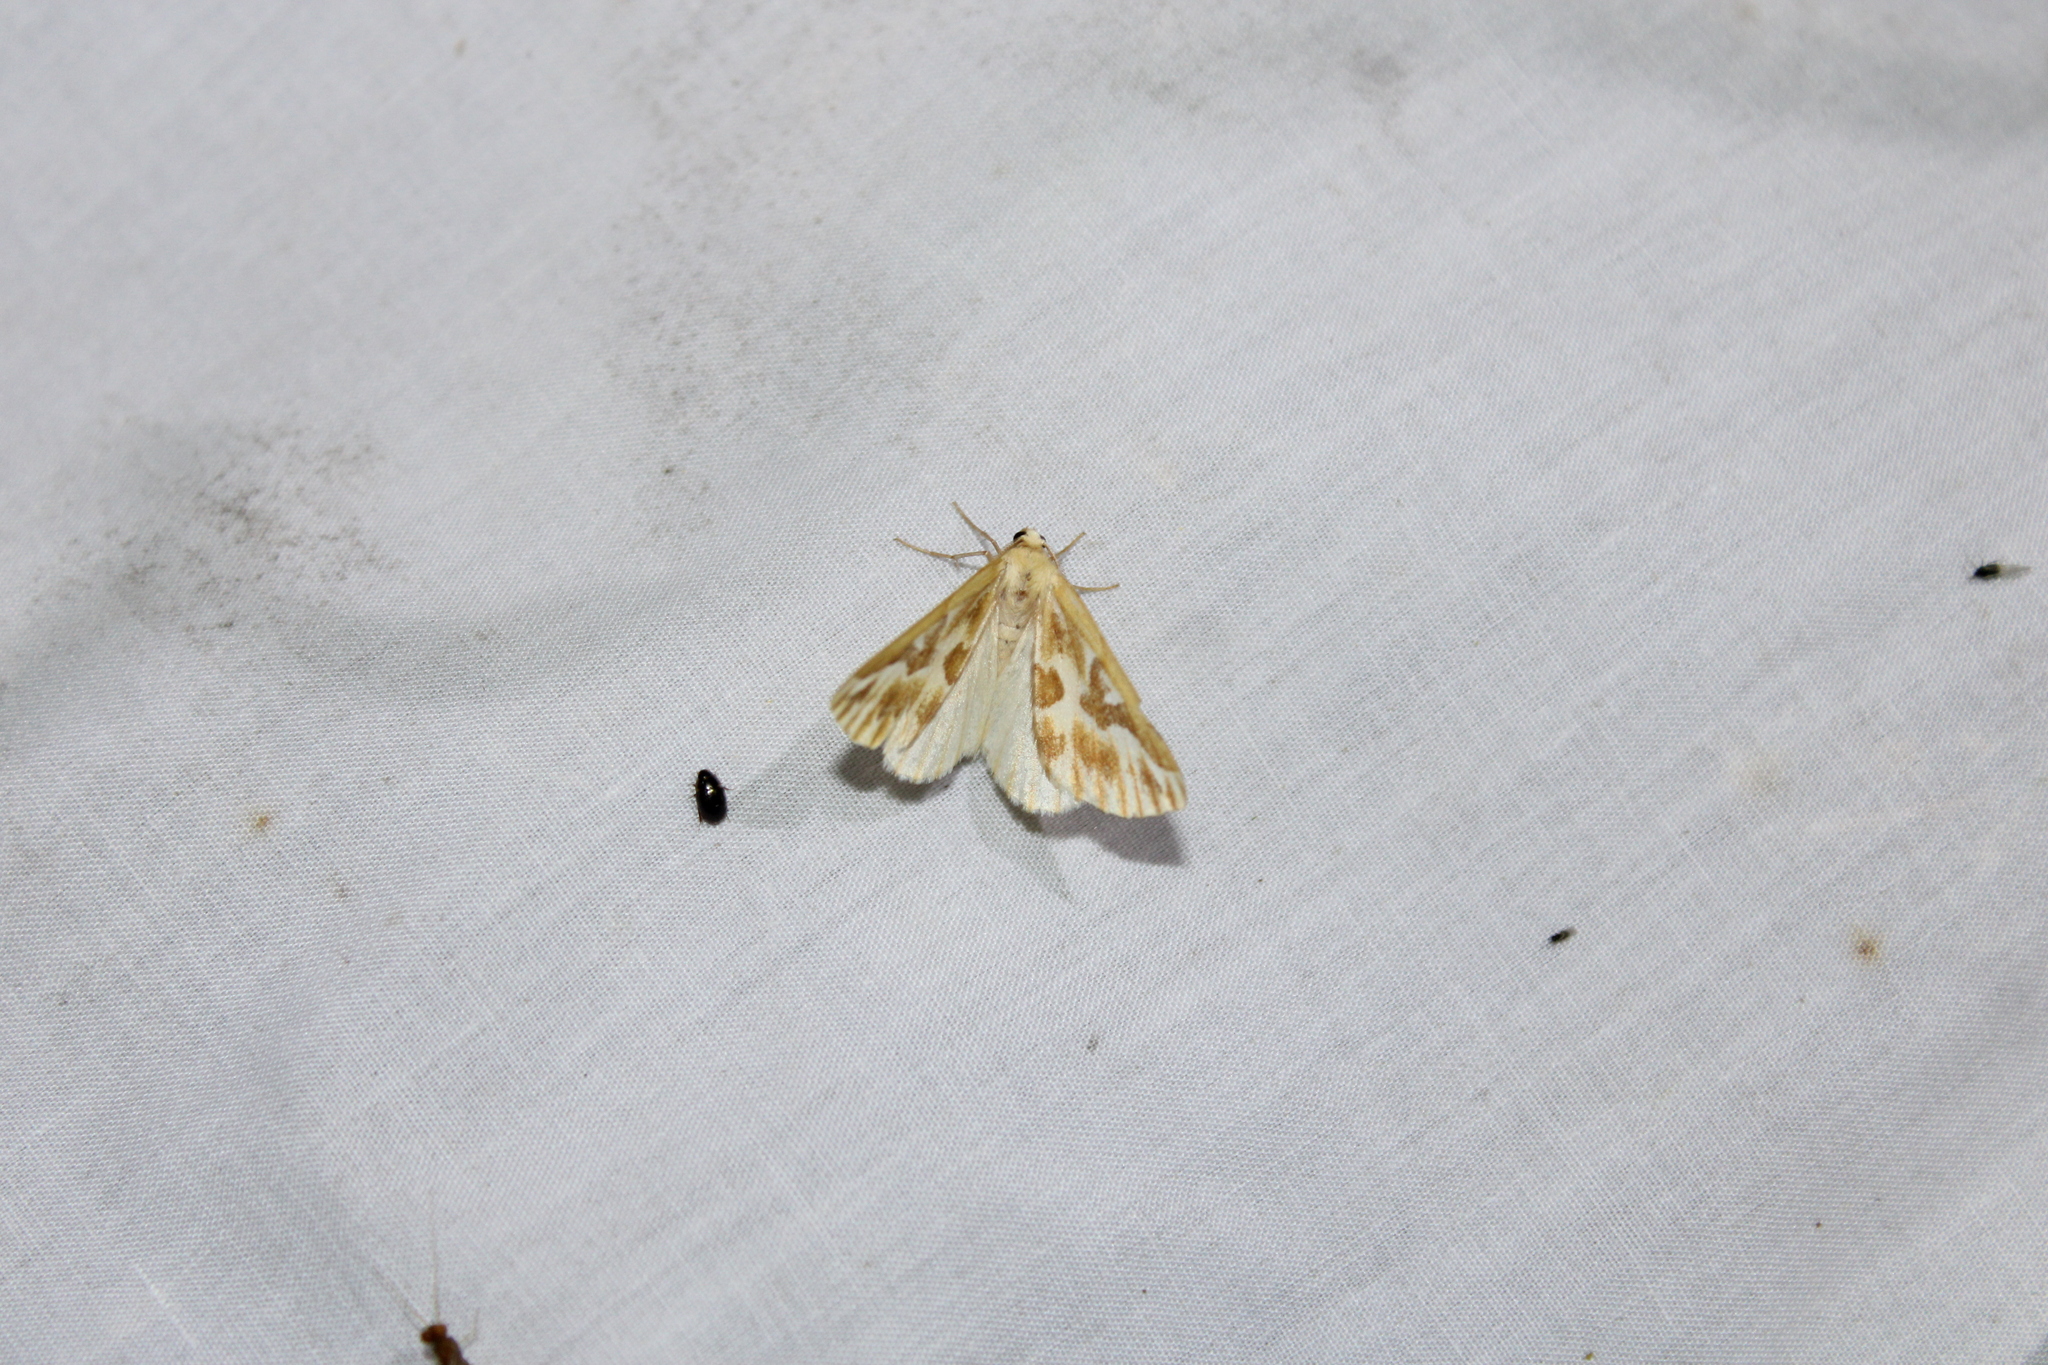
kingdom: Animalia
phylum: Arthropoda
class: Insecta
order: Lepidoptera
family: Geometridae
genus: Caripeta
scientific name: Caripeta piniata
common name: Northern pine looper moth
